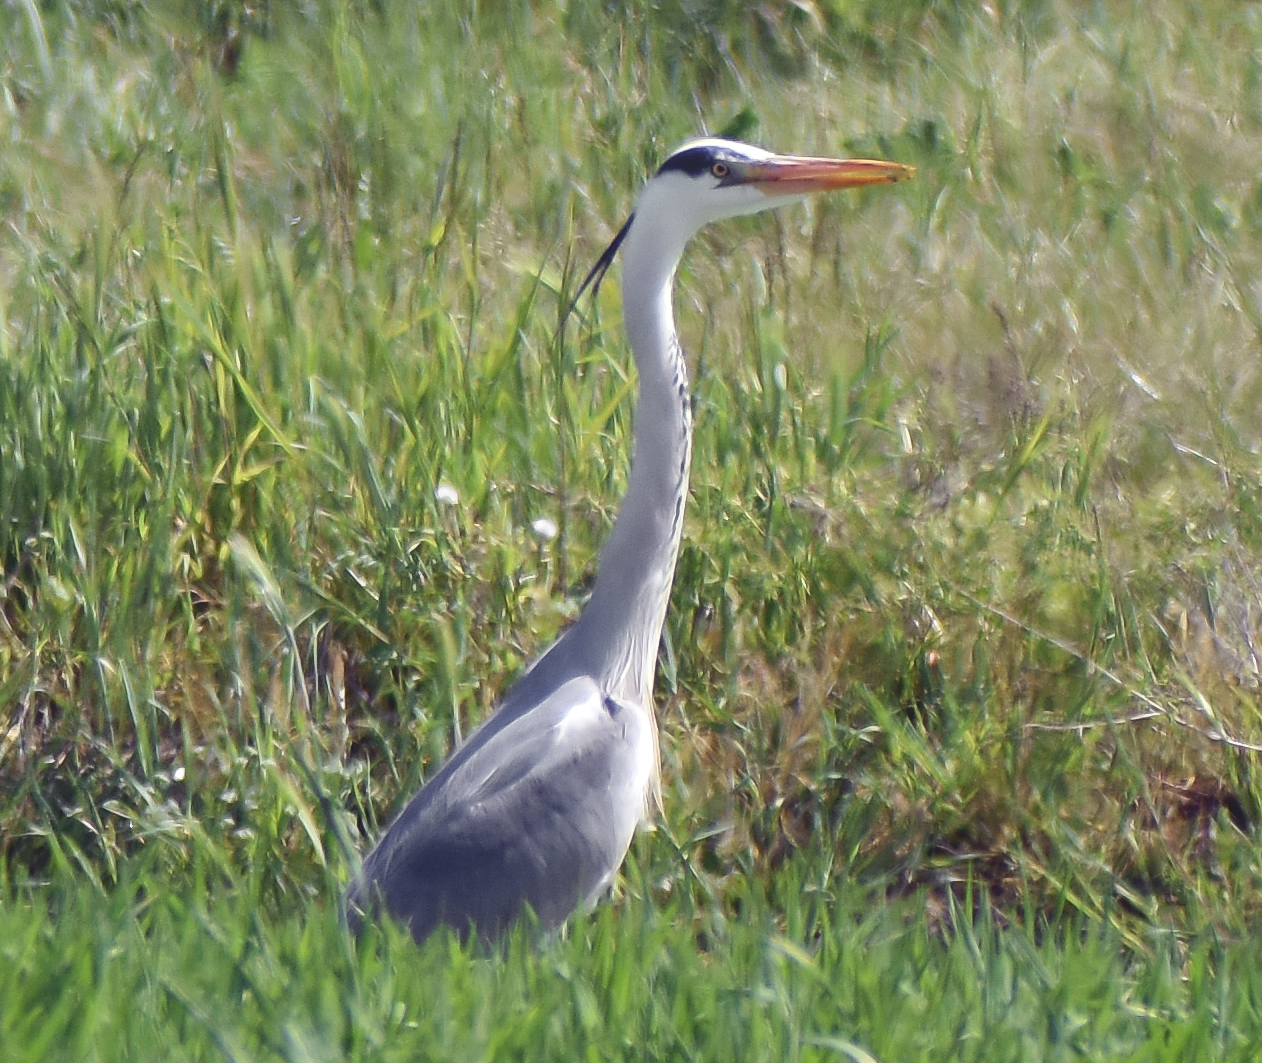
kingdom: Animalia
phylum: Chordata
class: Aves
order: Pelecaniformes
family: Ardeidae
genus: Ardea
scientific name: Ardea cinerea
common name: Grey heron
